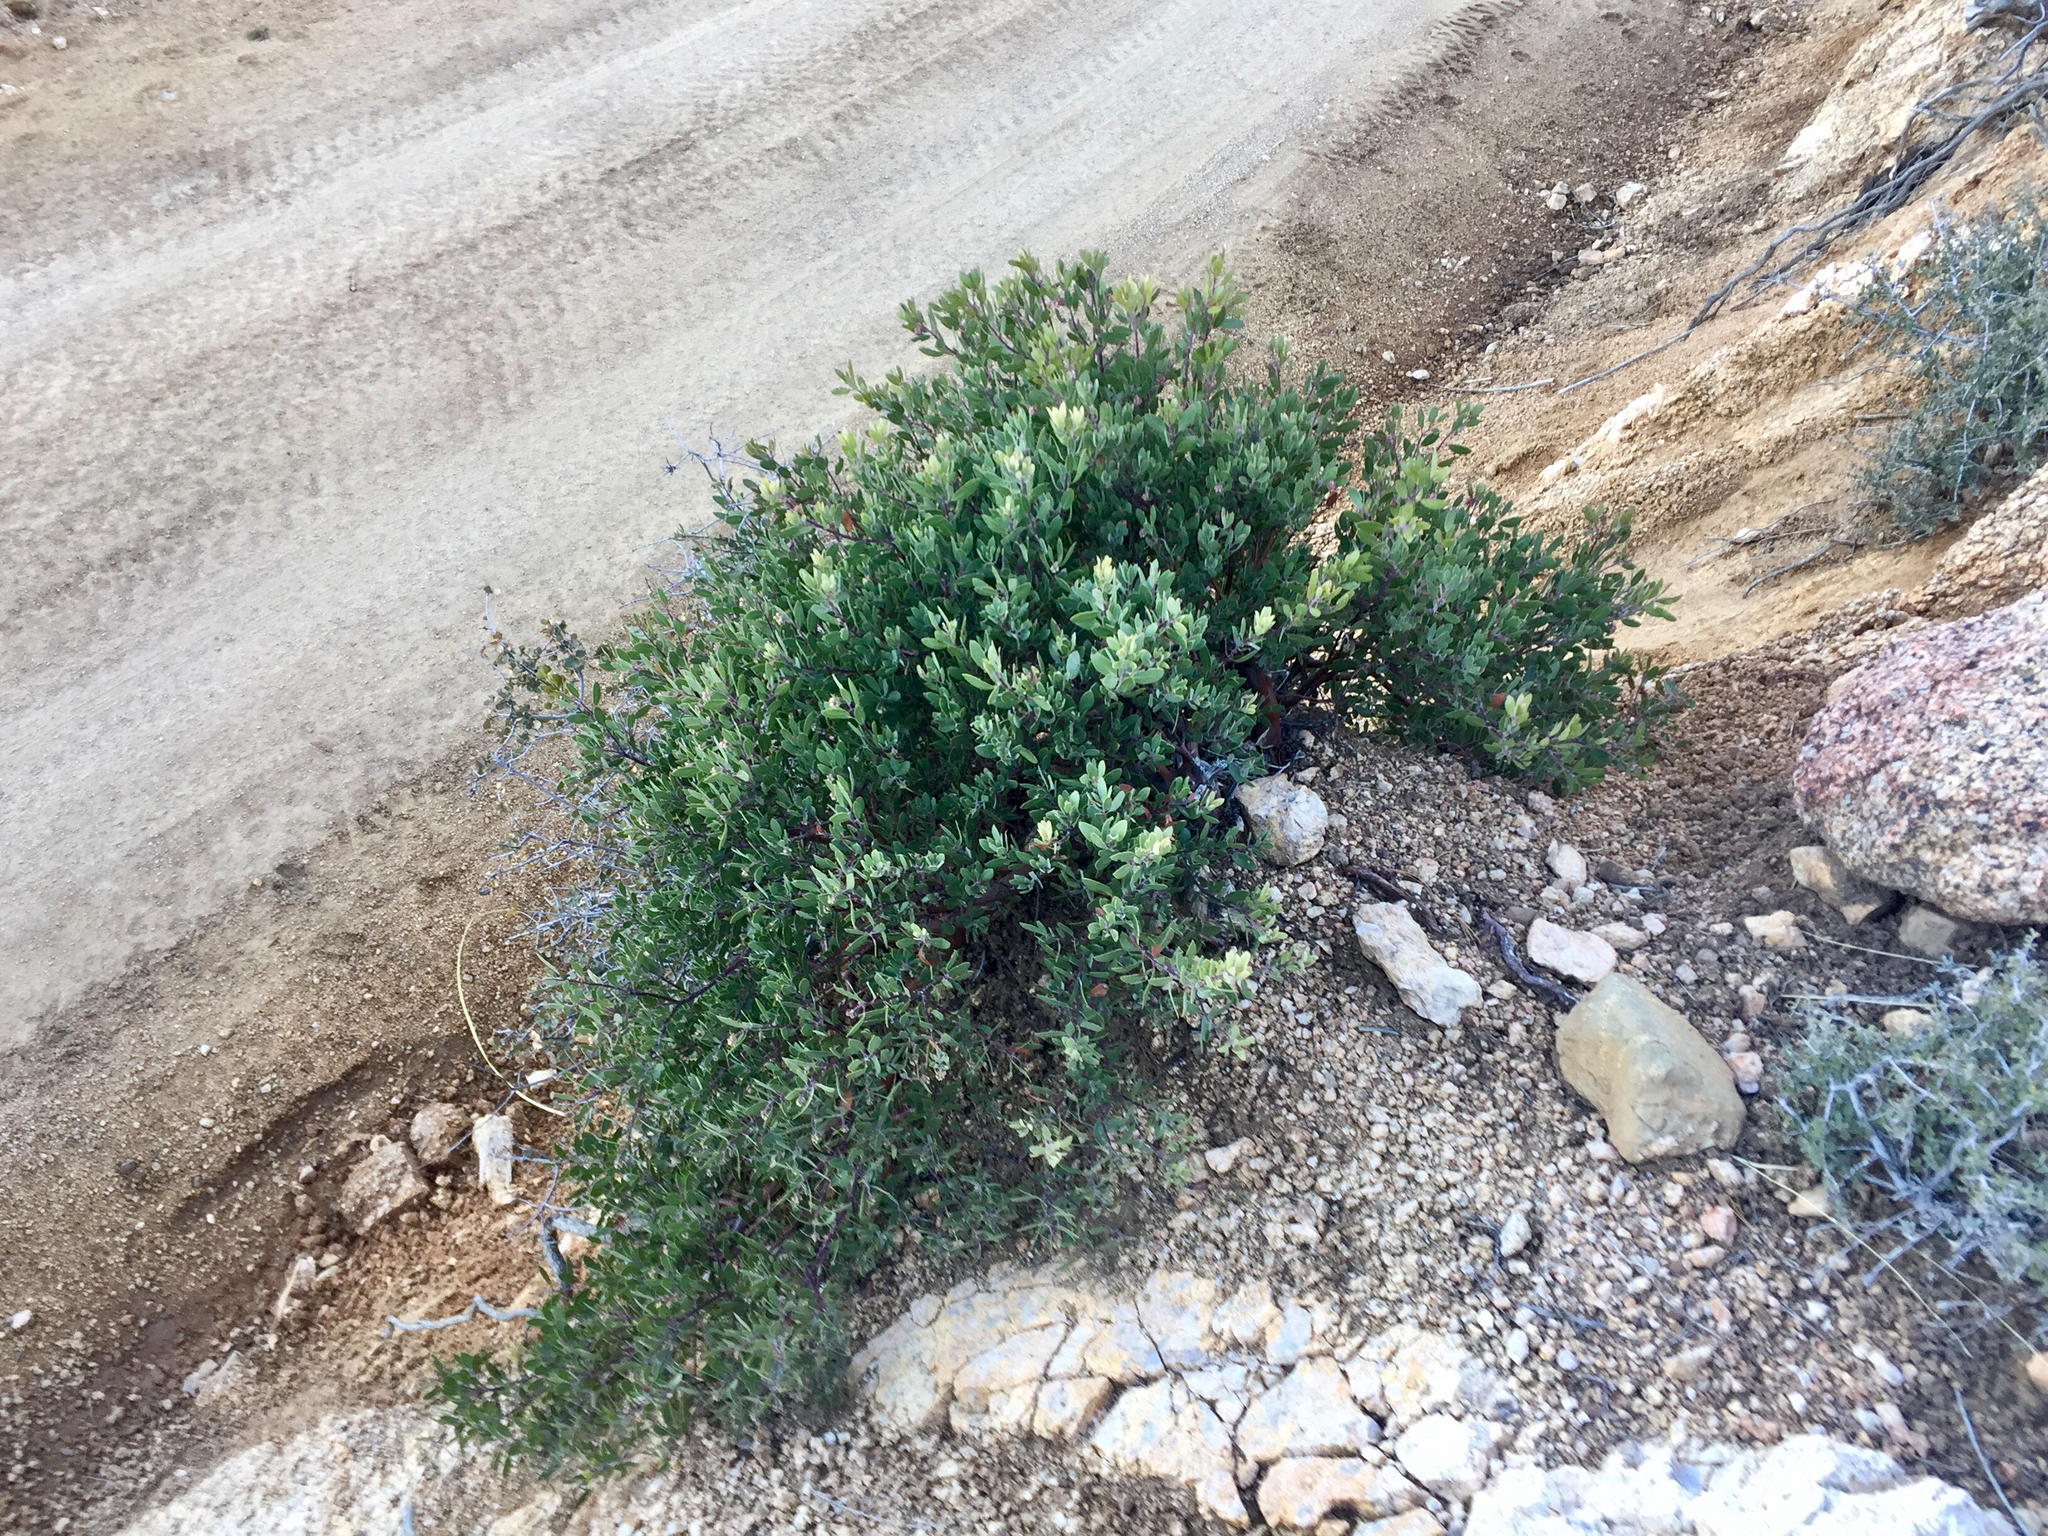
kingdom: Plantae
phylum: Tracheophyta
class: Magnoliopsida
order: Ericales
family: Ericaceae
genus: Arctostaphylos
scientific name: Arctostaphylos pringlei
